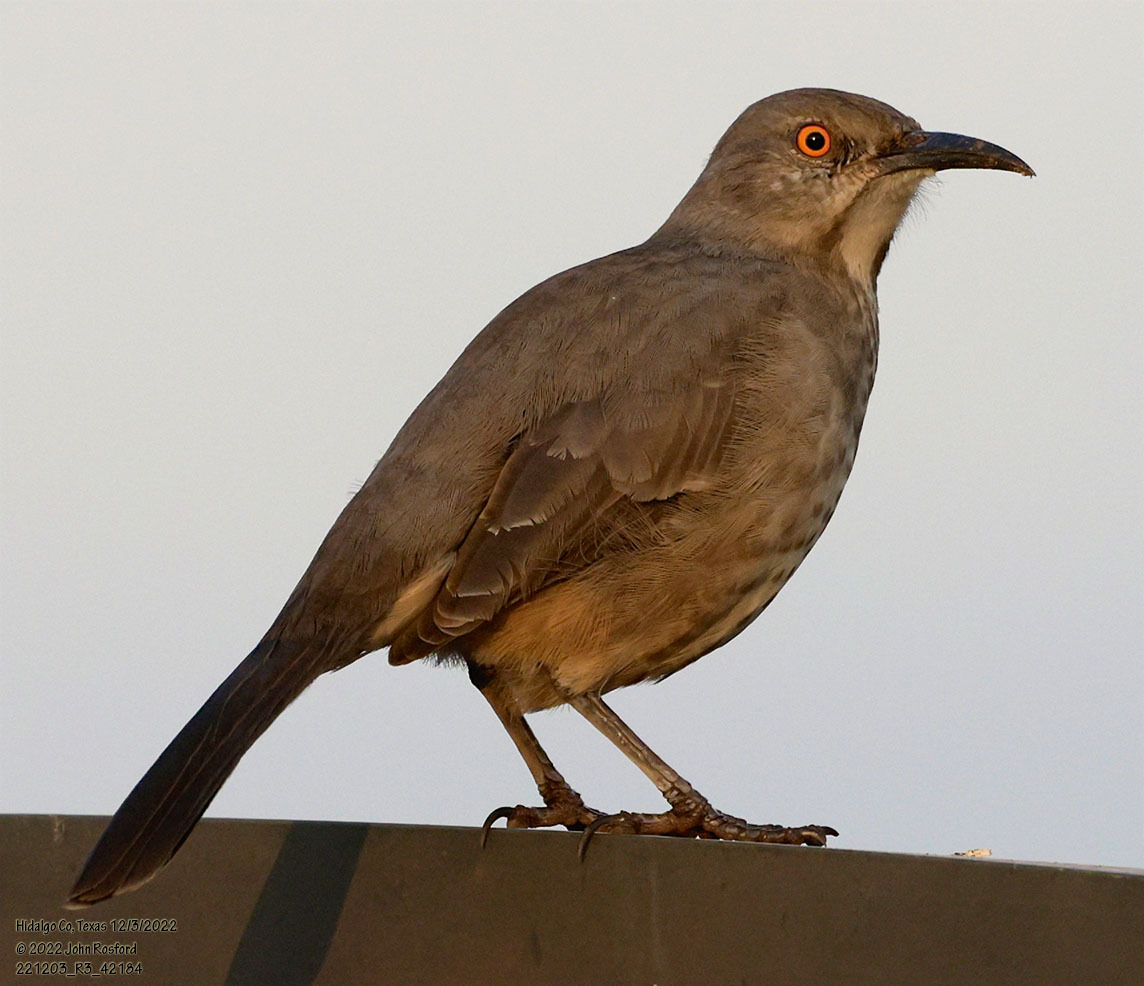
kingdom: Animalia
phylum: Chordata
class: Aves
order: Passeriformes
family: Mimidae
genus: Toxostoma
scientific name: Toxostoma curvirostre
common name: Curve-billed thrasher
